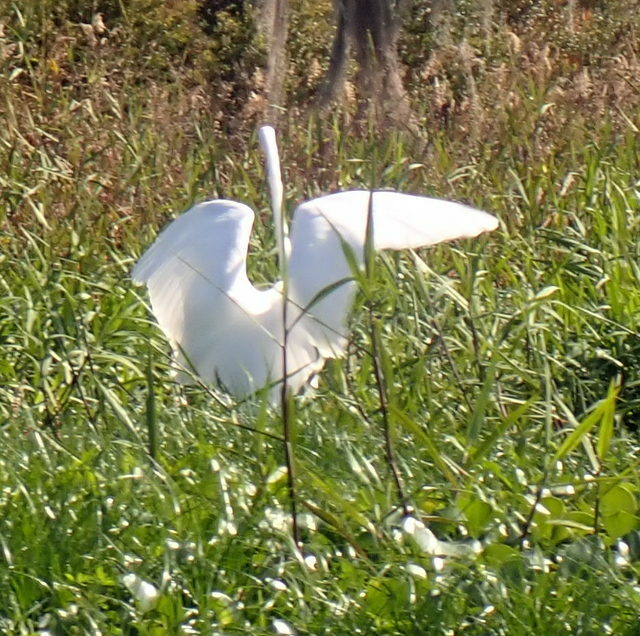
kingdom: Animalia
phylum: Chordata
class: Aves
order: Pelecaniformes
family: Ardeidae
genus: Ardea
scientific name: Ardea alba
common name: Great egret
